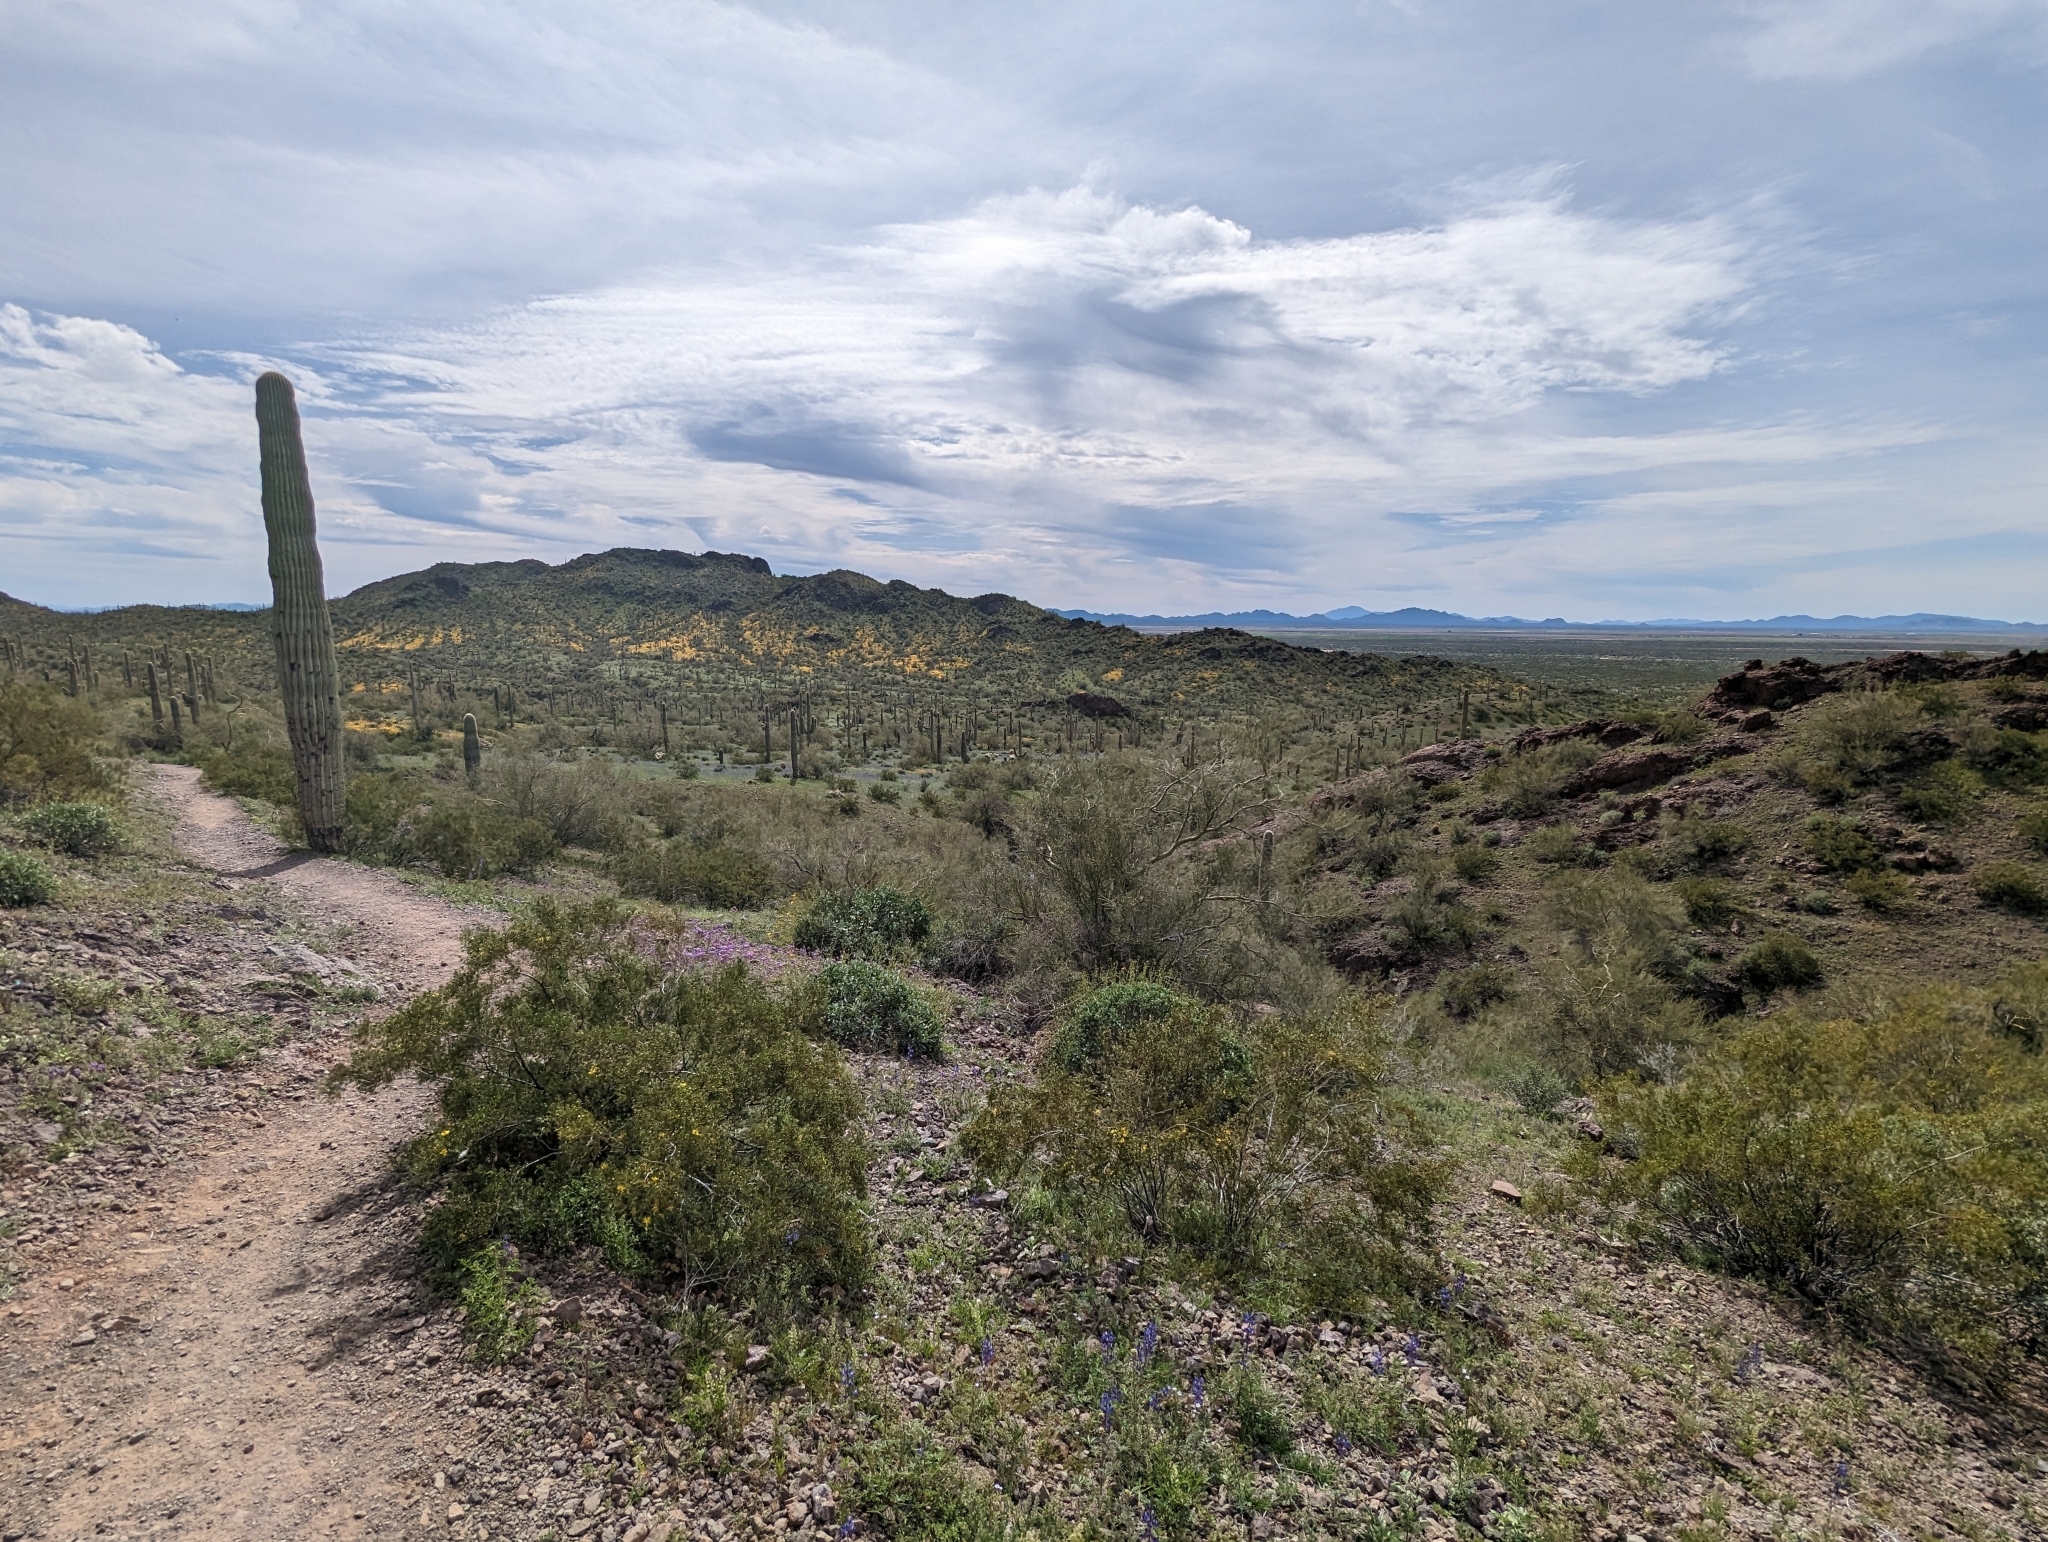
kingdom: Plantae
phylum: Tracheophyta
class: Magnoliopsida
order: Zygophyllales
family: Zygophyllaceae
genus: Larrea
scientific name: Larrea tridentata
